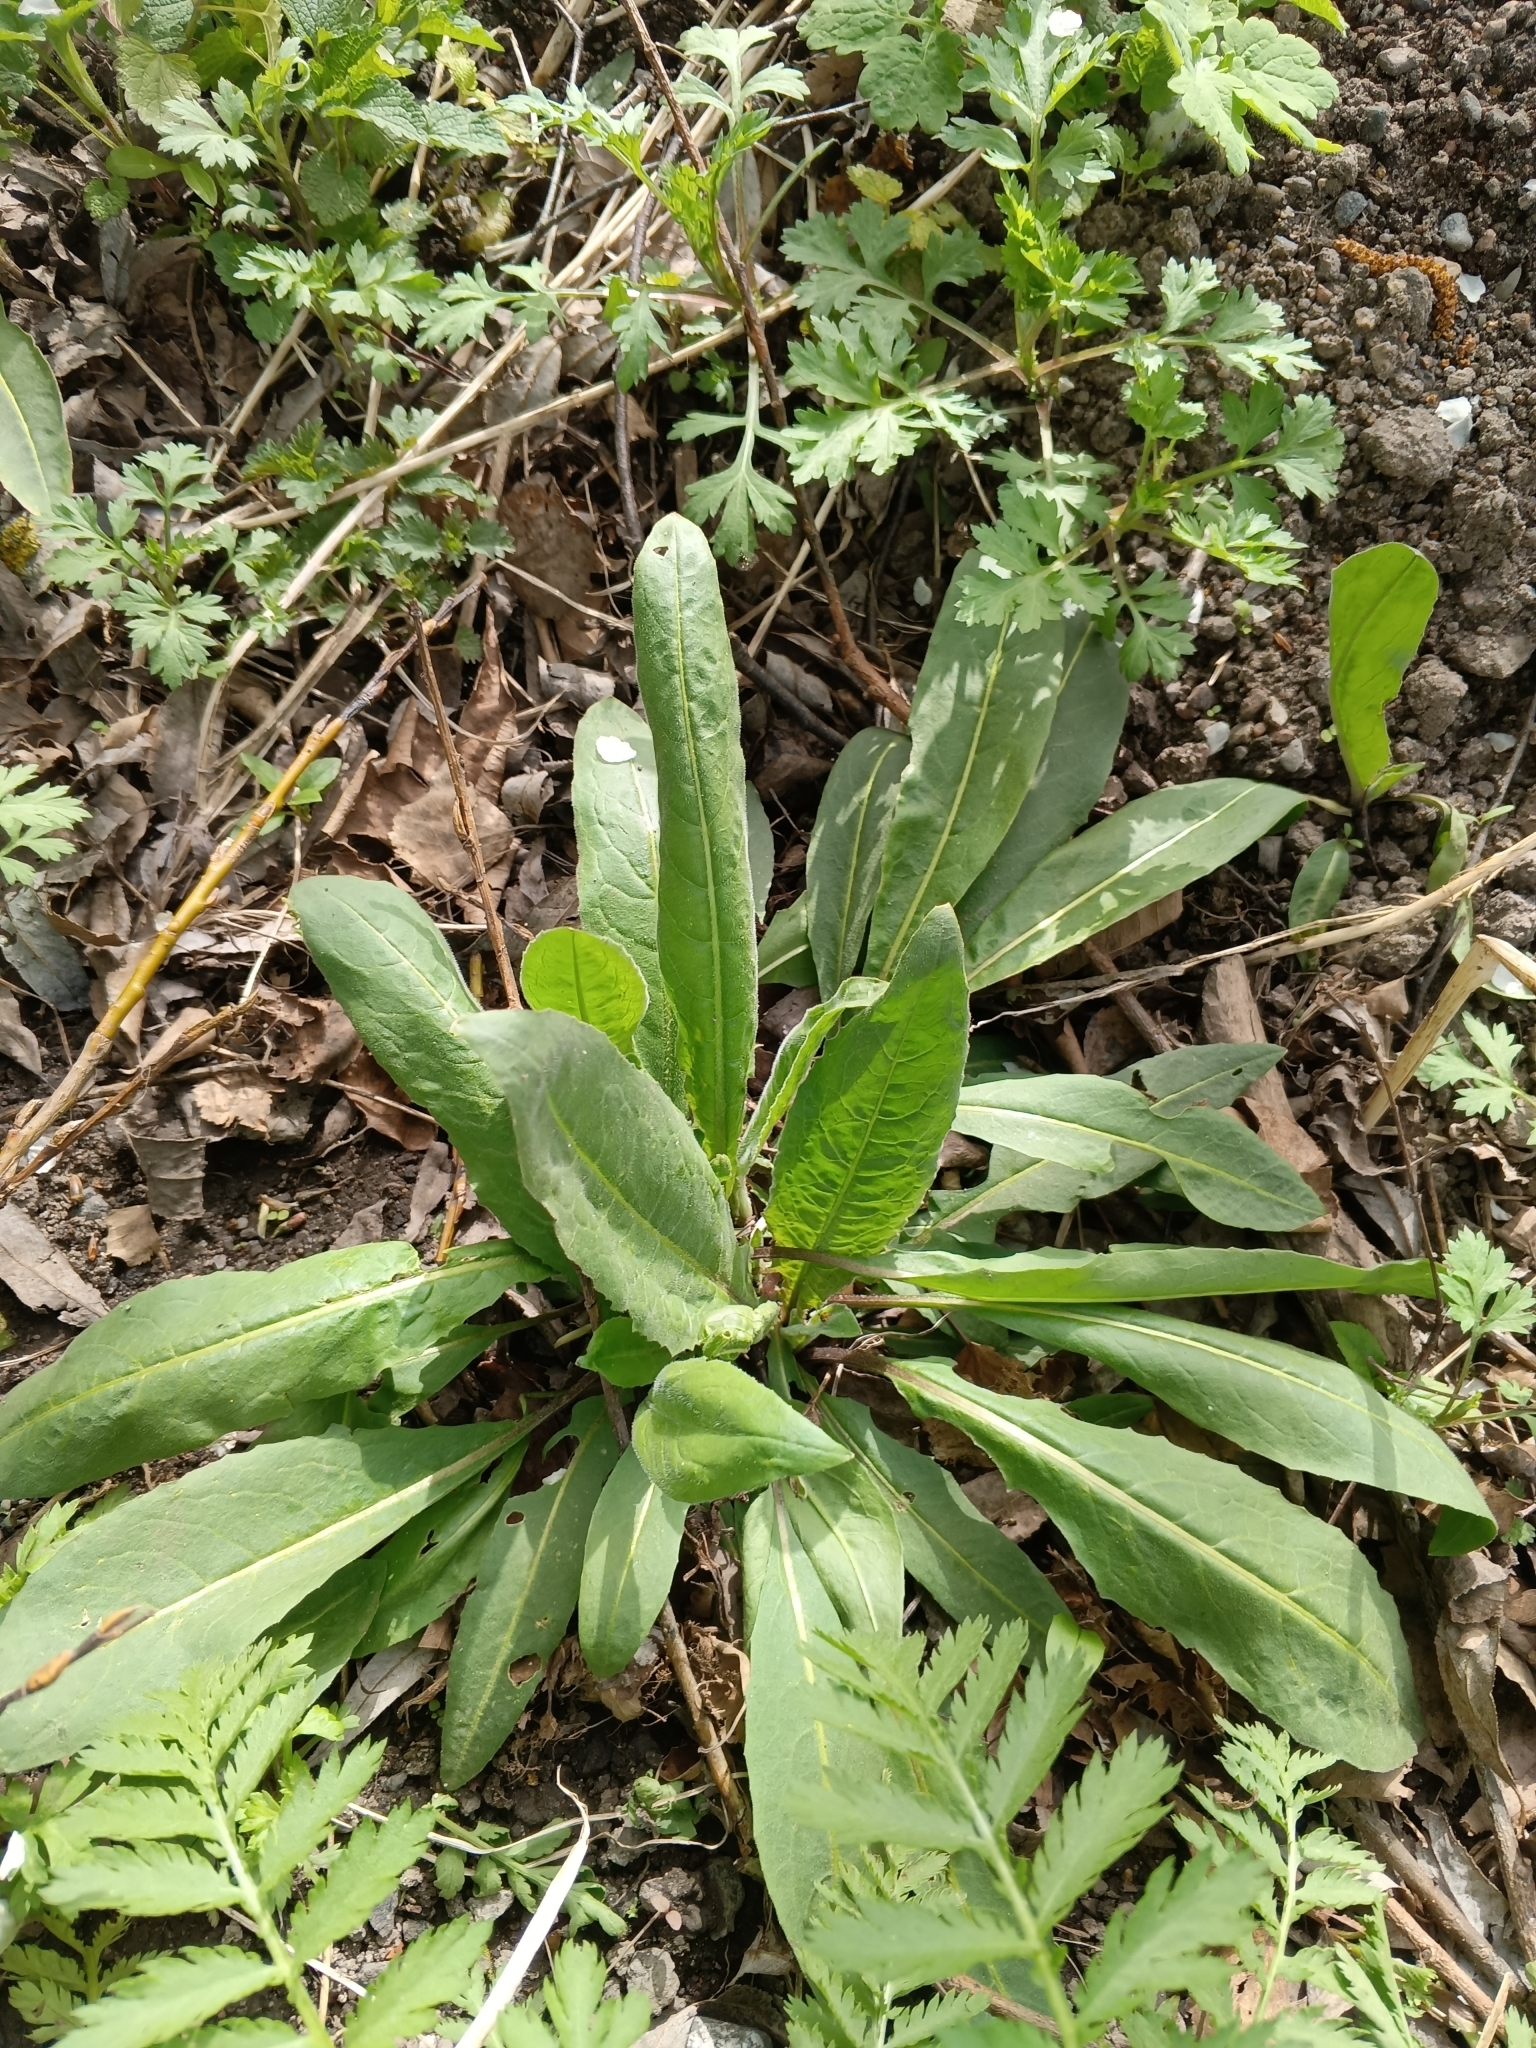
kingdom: Plantae
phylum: Tracheophyta
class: Magnoliopsida
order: Brassicales
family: Brassicaceae
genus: Bunias
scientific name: Bunias orientalis
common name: Warty-cabbage
